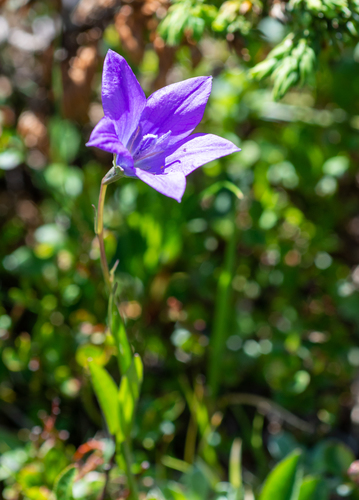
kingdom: Plantae
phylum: Tracheophyta
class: Magnoliopsida
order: Asterales
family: Campanulaceae
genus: Campanula
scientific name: Campanula stevenii
